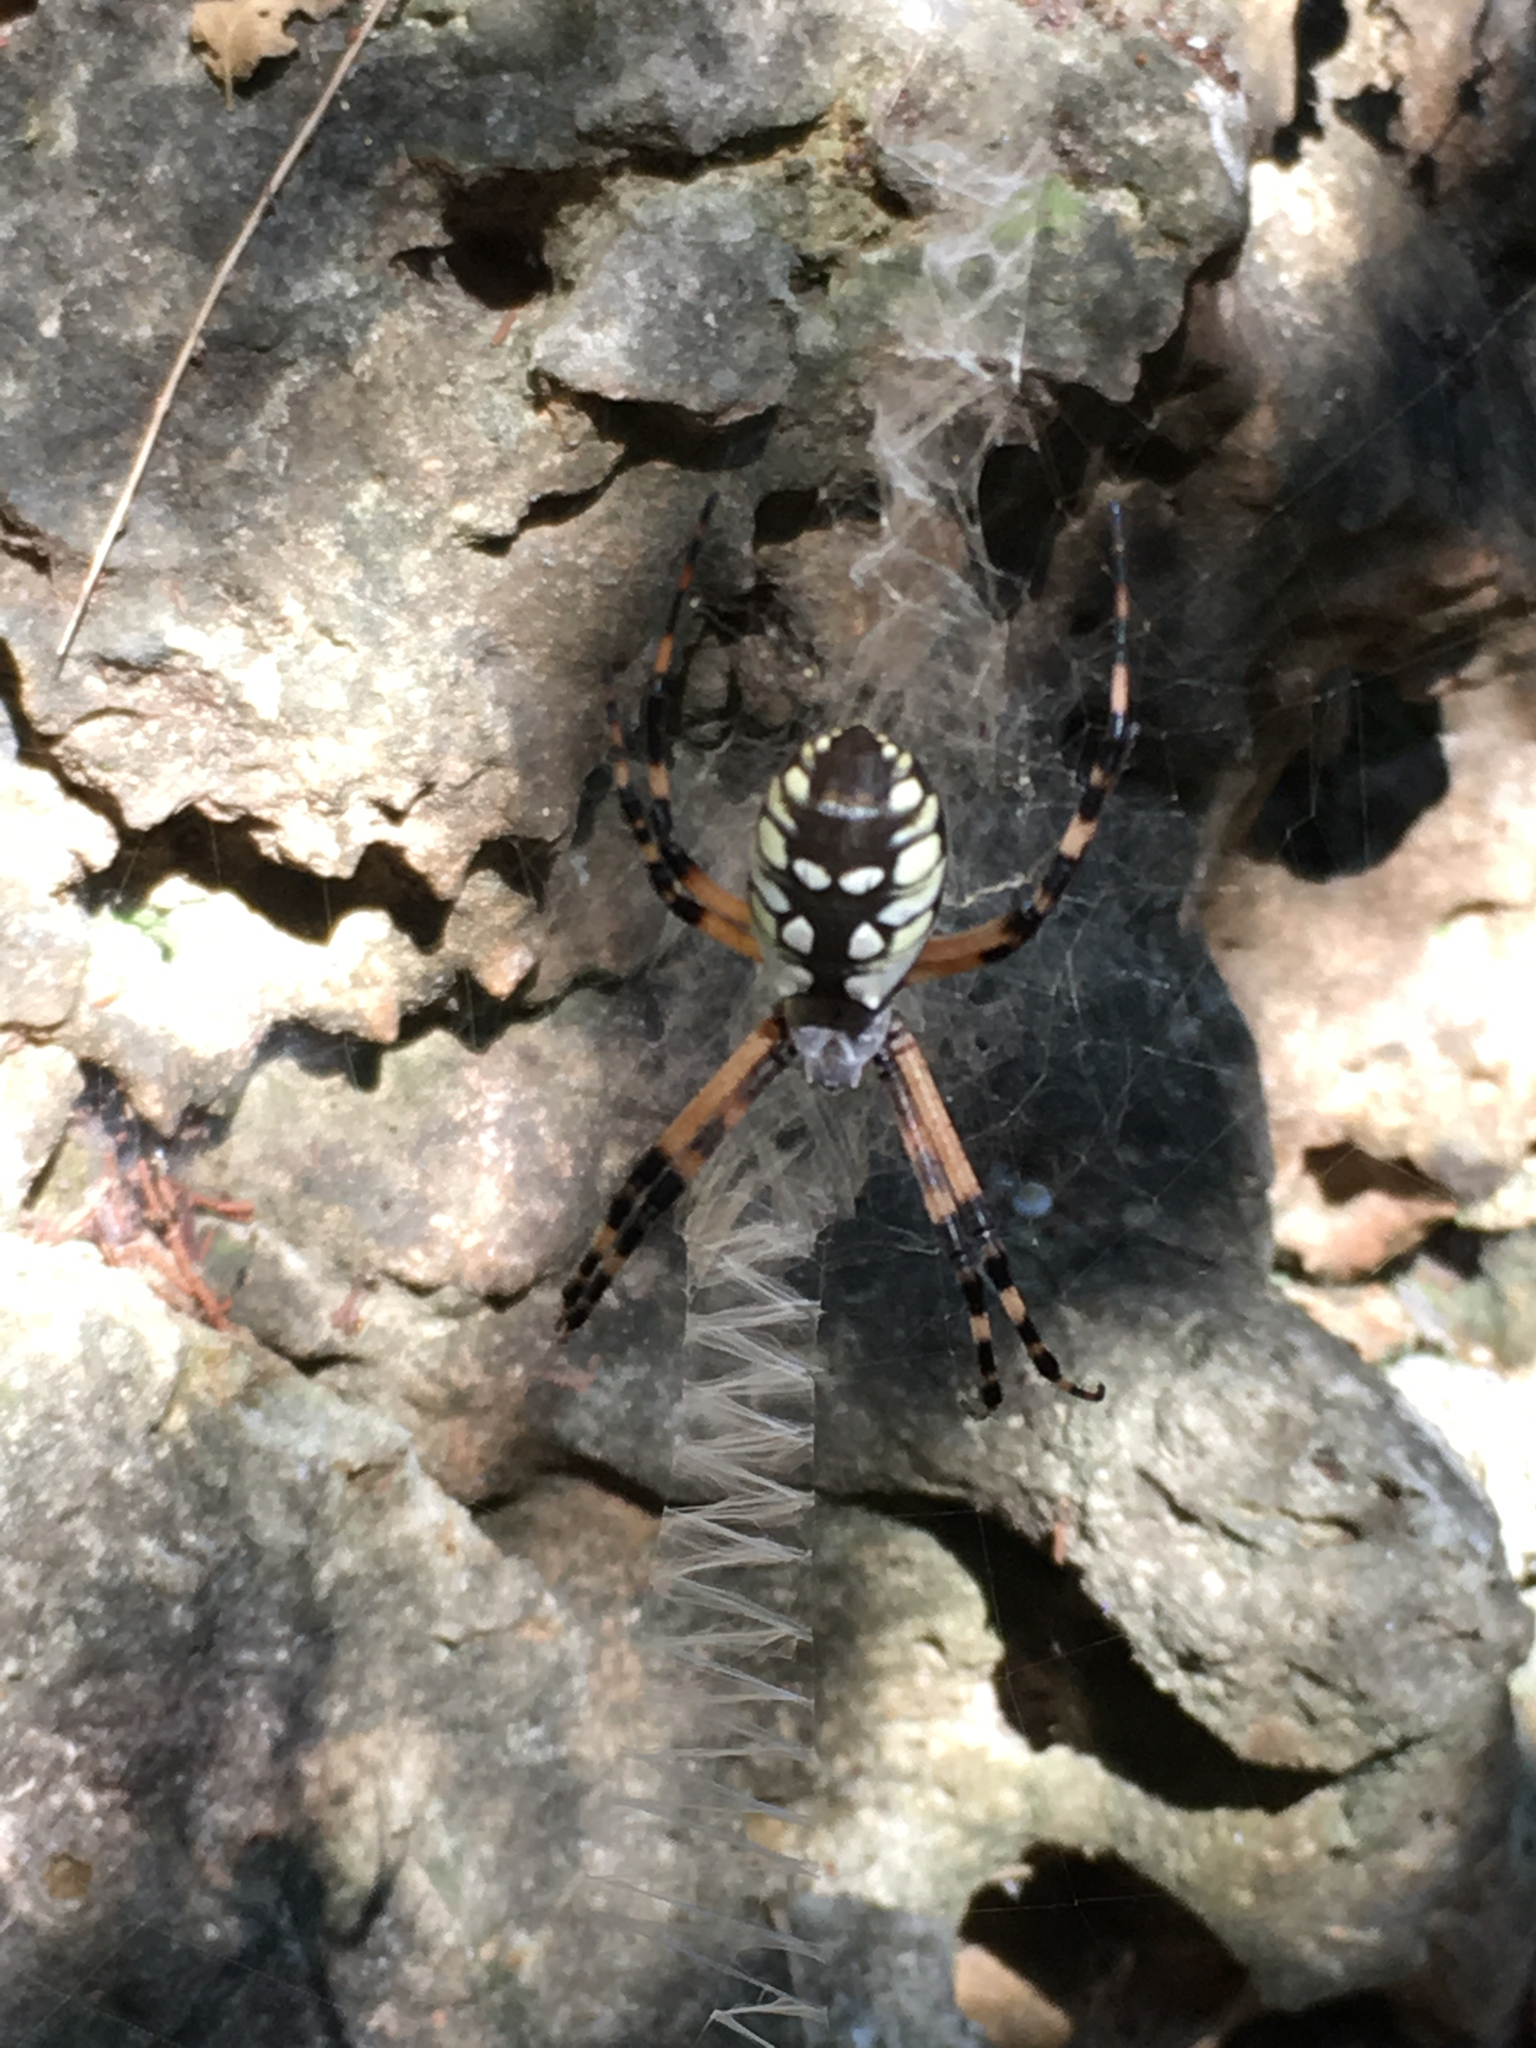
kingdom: Animalia
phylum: Arthropoda
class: Arachnida
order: Araneae
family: Araneidae
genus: Argiope
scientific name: Argiope aurantia
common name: Orb weavers
